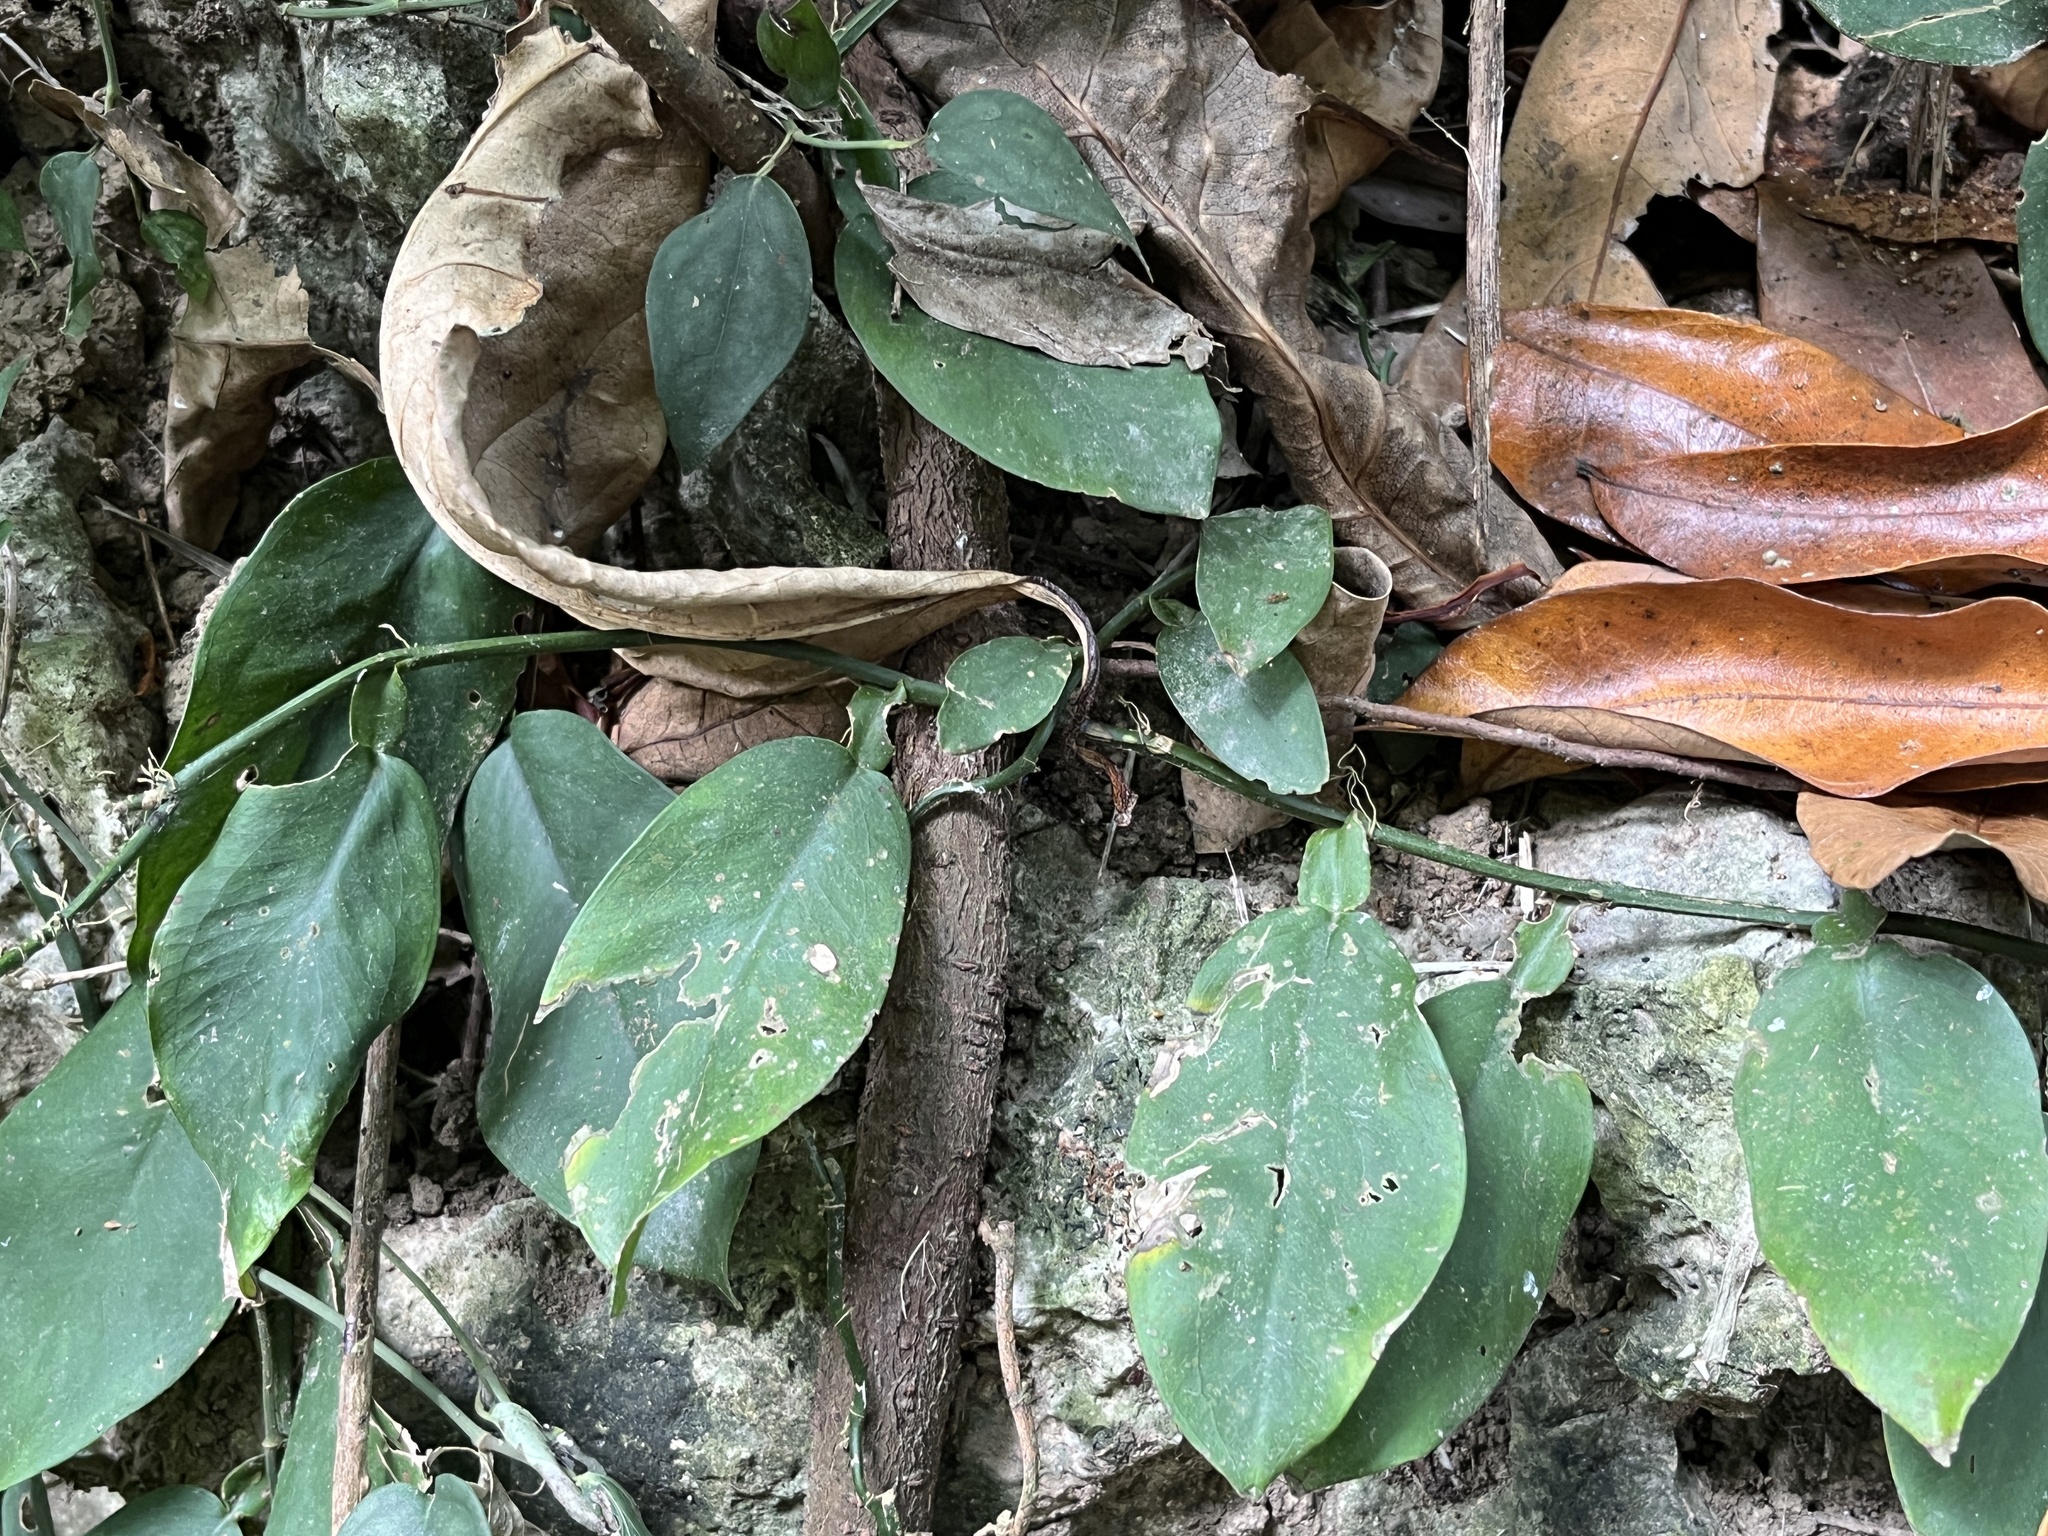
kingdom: Plantae
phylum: Tracheophyta
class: Liliopsida
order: Alismatales
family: Araceae
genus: Pothos
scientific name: Pothos chinensis
